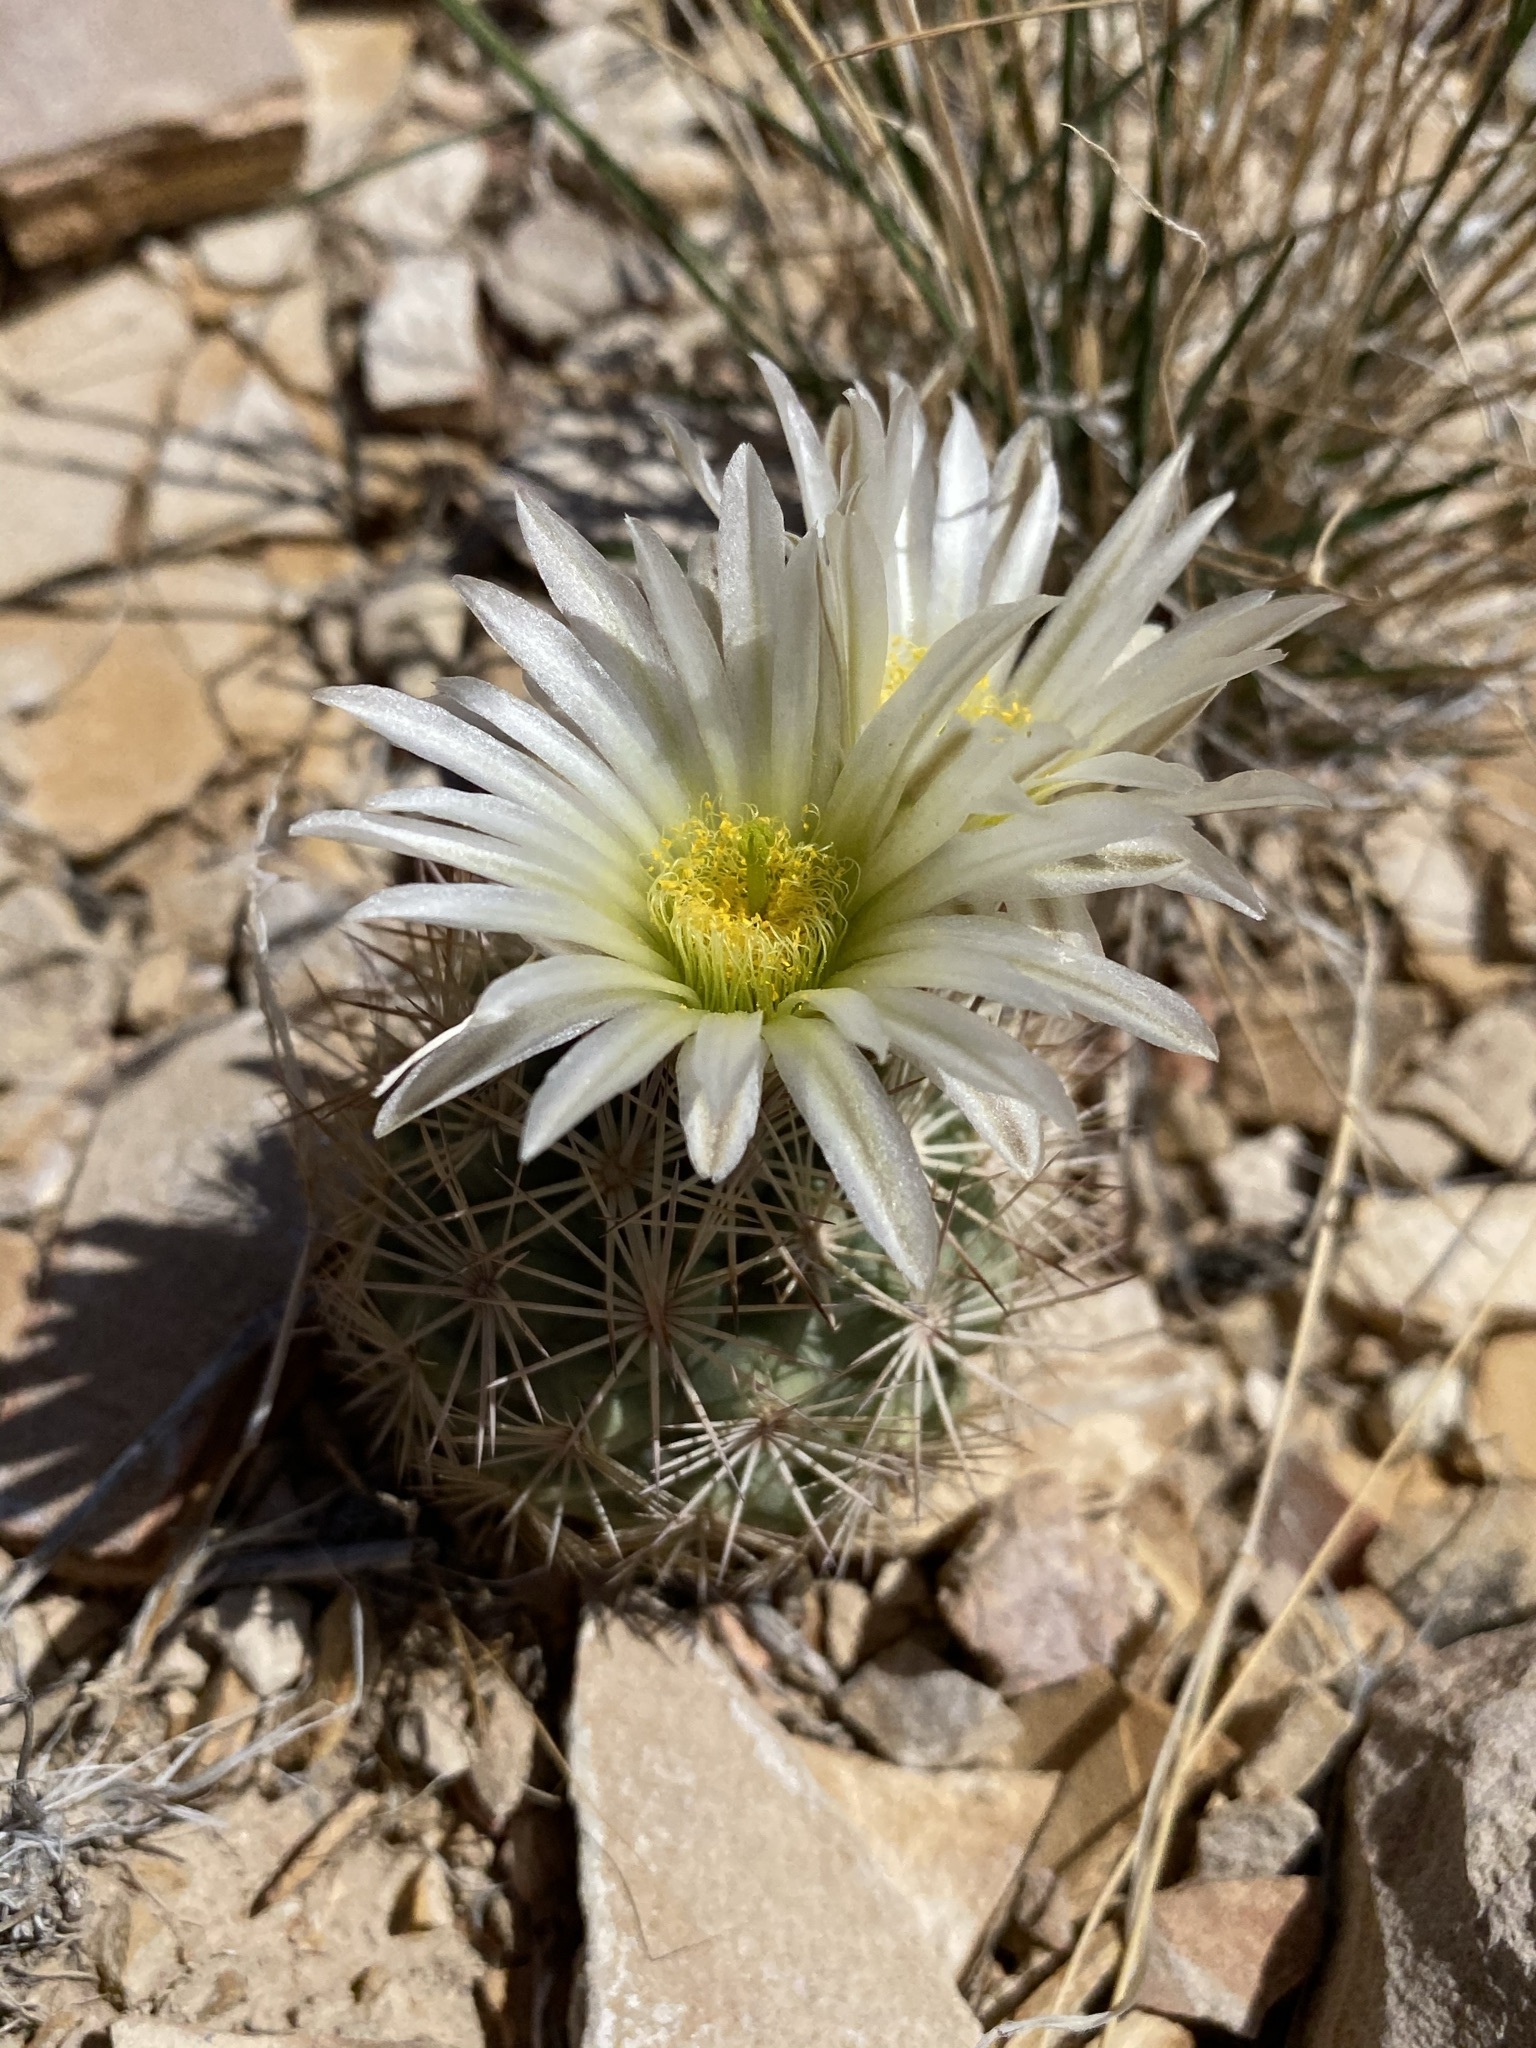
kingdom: Plantae
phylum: Tracheophyta
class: Magnoliopsida
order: Caryophyllales
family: Cactaceae
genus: Sclerocactus
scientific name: Sclerocactus warnockii
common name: Pineapple cactus
